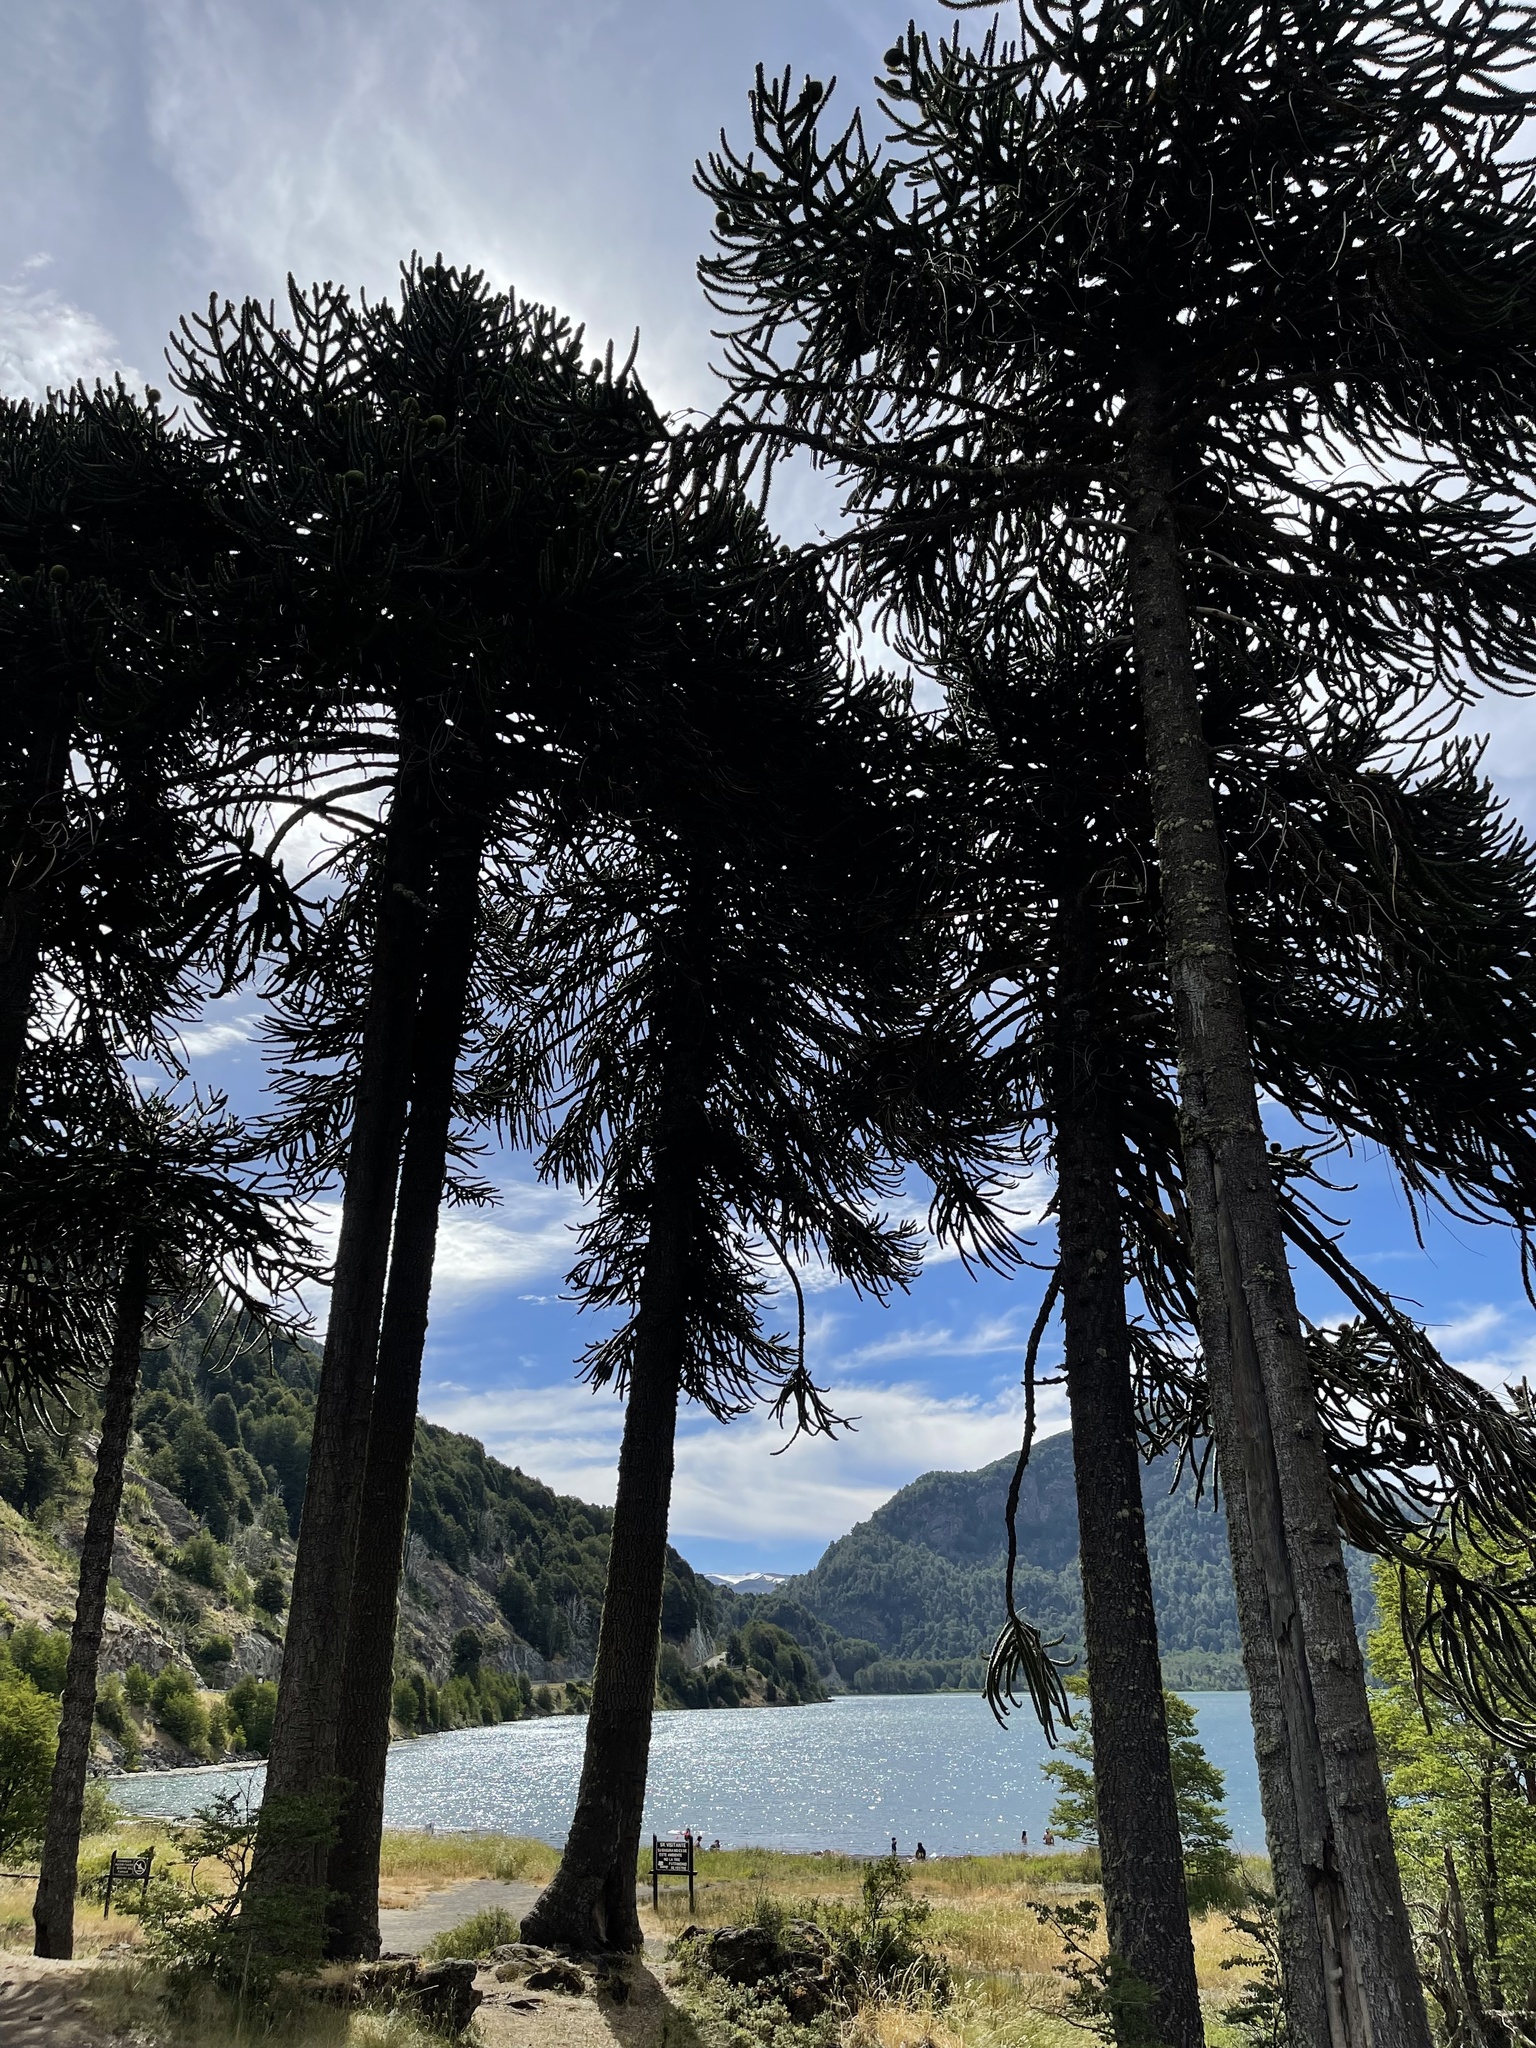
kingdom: Plantae
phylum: Tracheophyta
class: Pinopsida
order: Pinales
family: Araucariaceae
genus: Araucaria
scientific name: Araucaria araucana
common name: Monkey-puzzle
